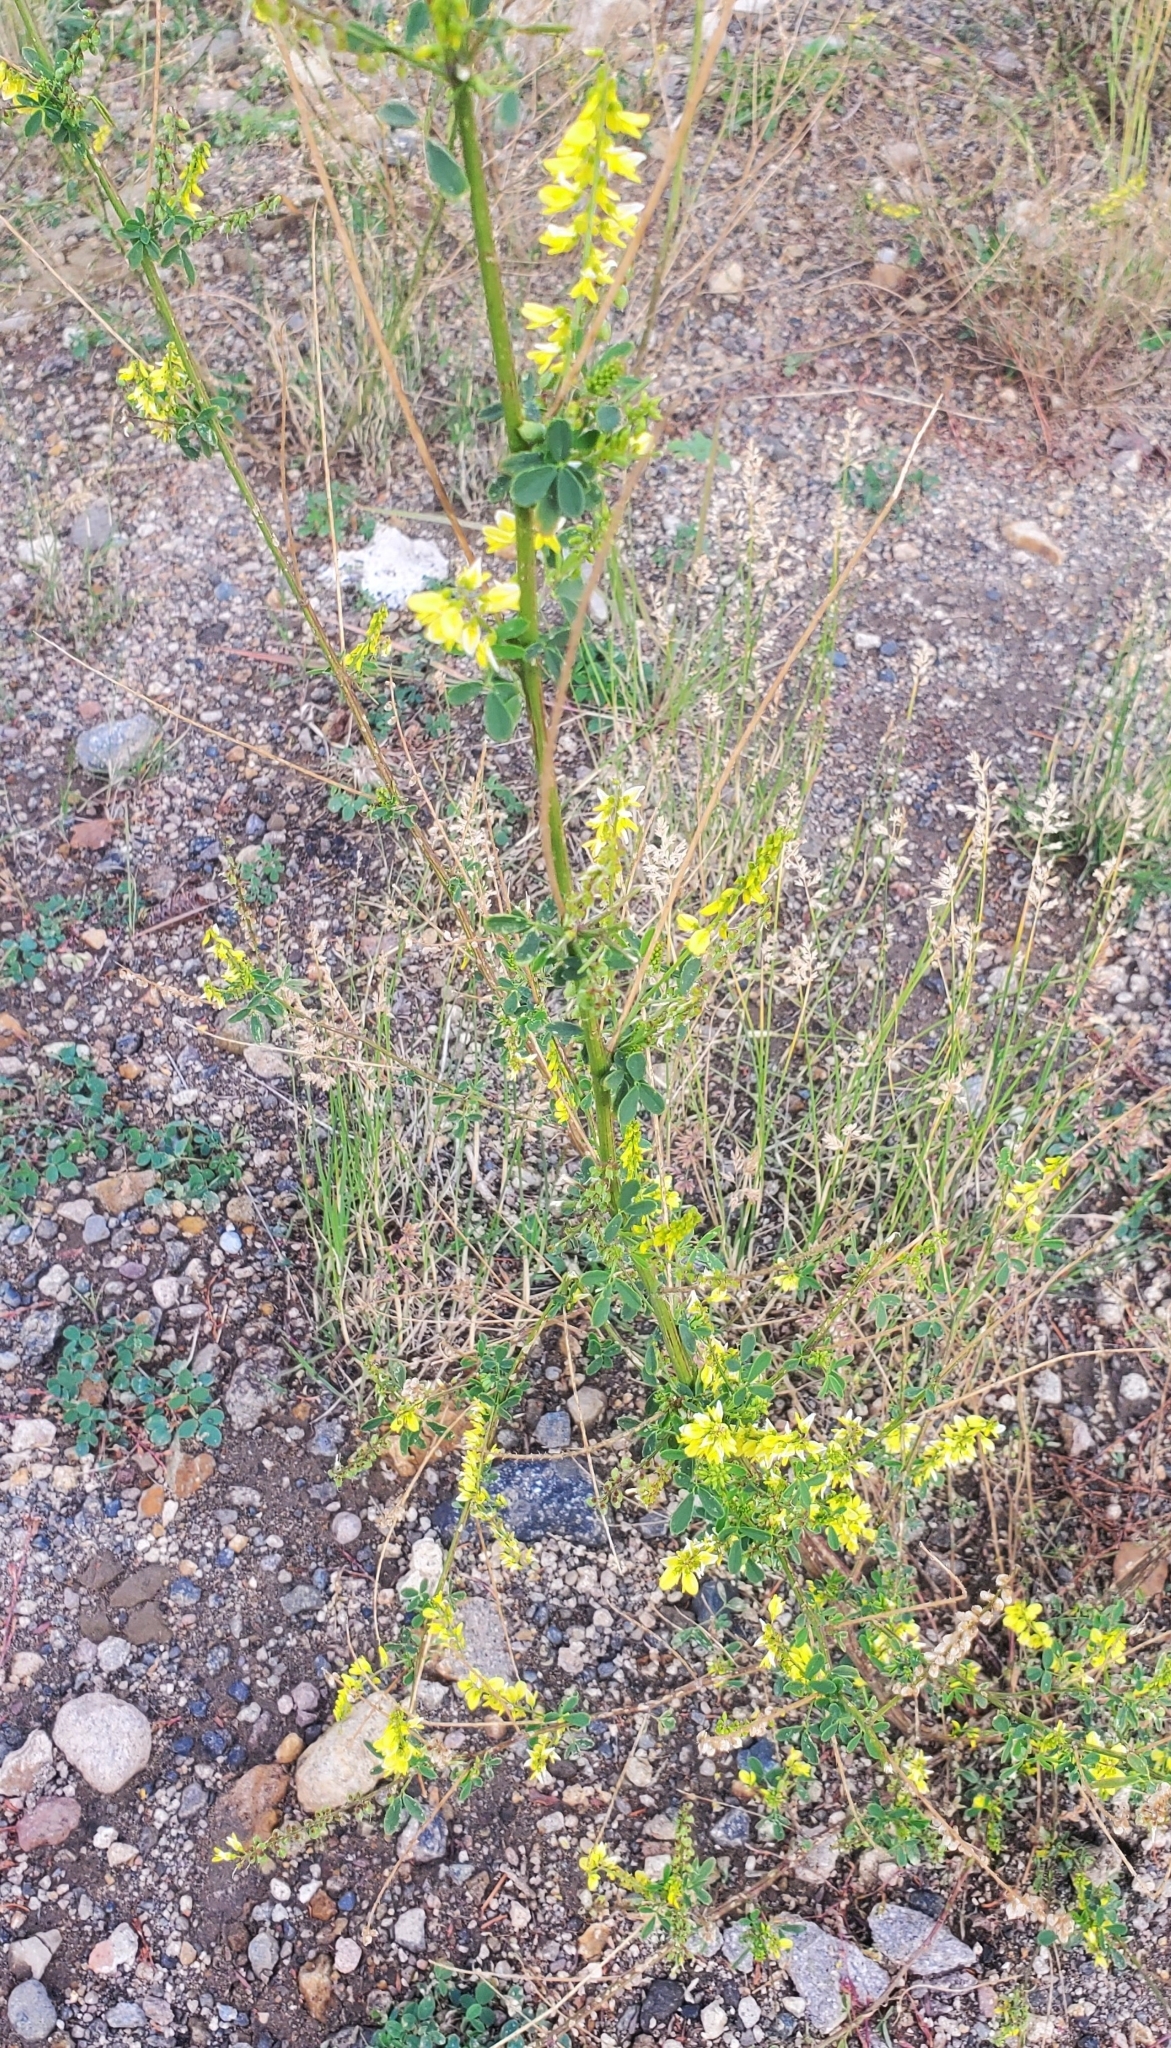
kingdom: Plantae
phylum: Tracheophyta
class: Magnoliopsida
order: Fabales
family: Fabaceae
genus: Melilotus
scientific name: Melilotus officinalis
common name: Sweetclover
